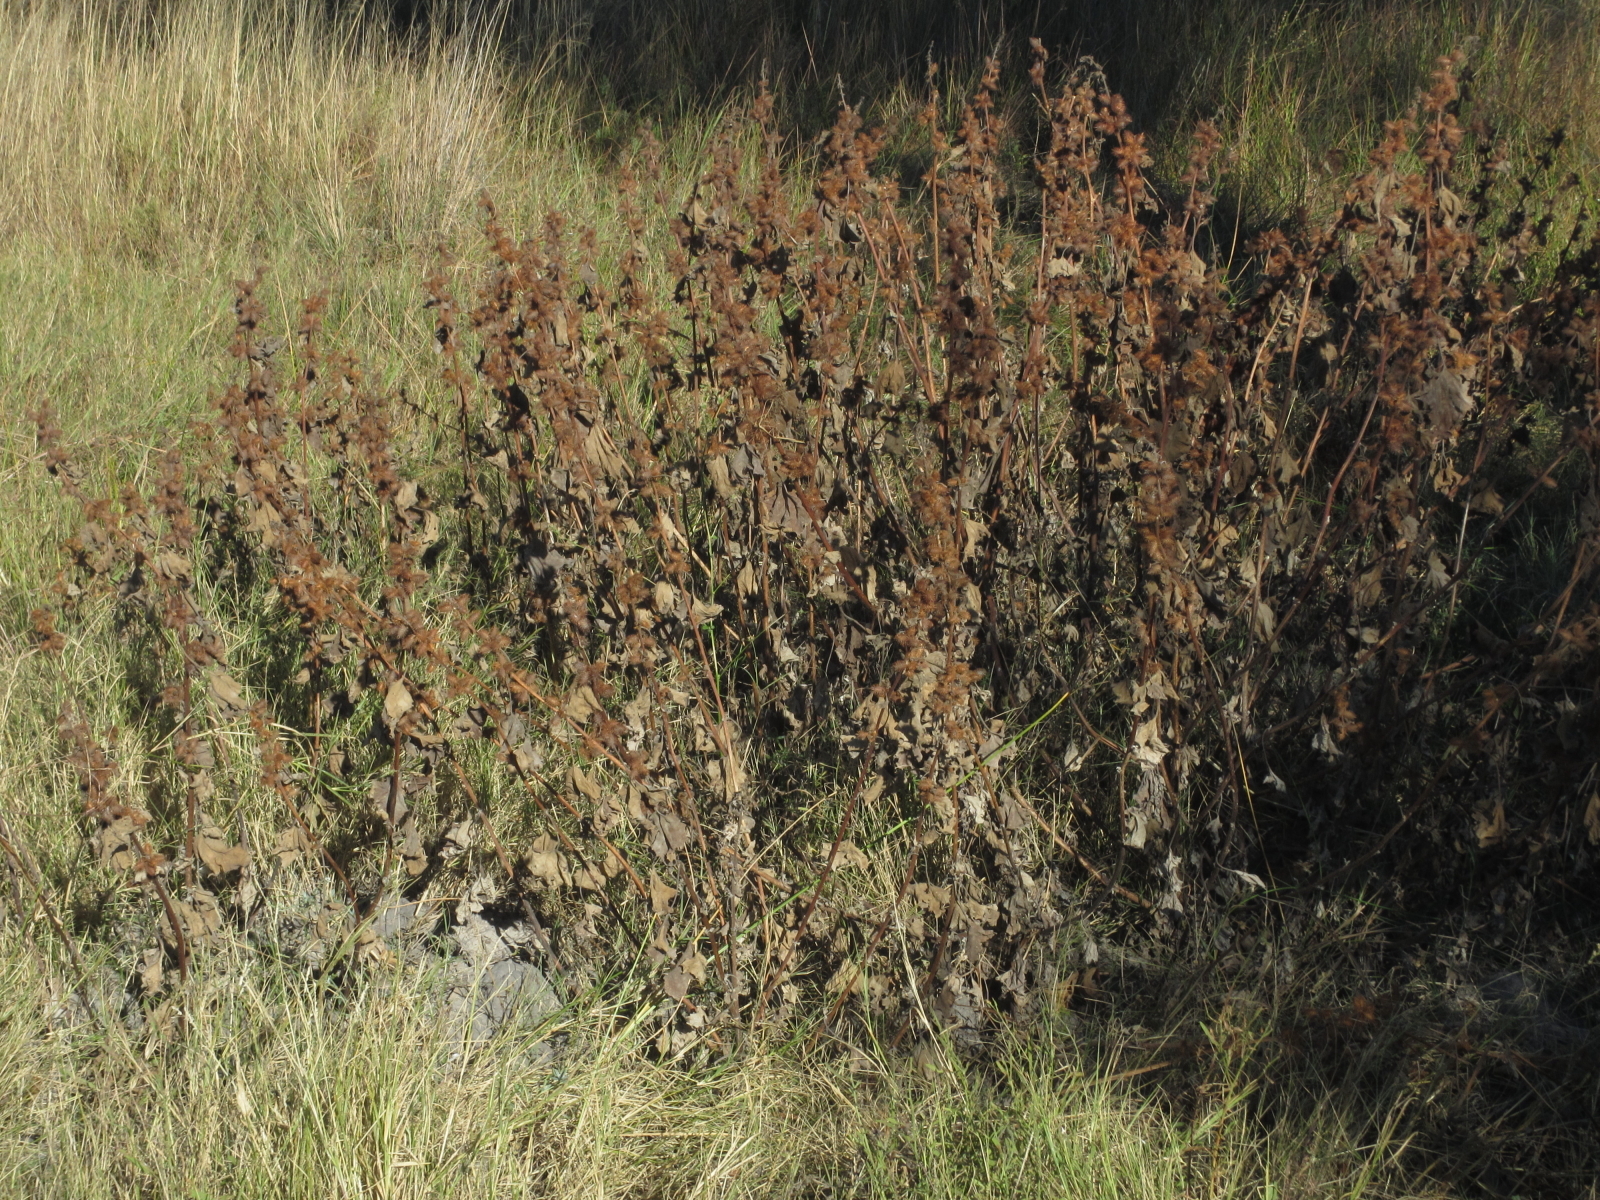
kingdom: Plantae
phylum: Tracheophyta
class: Magnoliopsida
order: Asterales
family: Asteraceae
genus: Xanthium
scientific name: Xanthium strumarium
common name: Rough cocklebur
